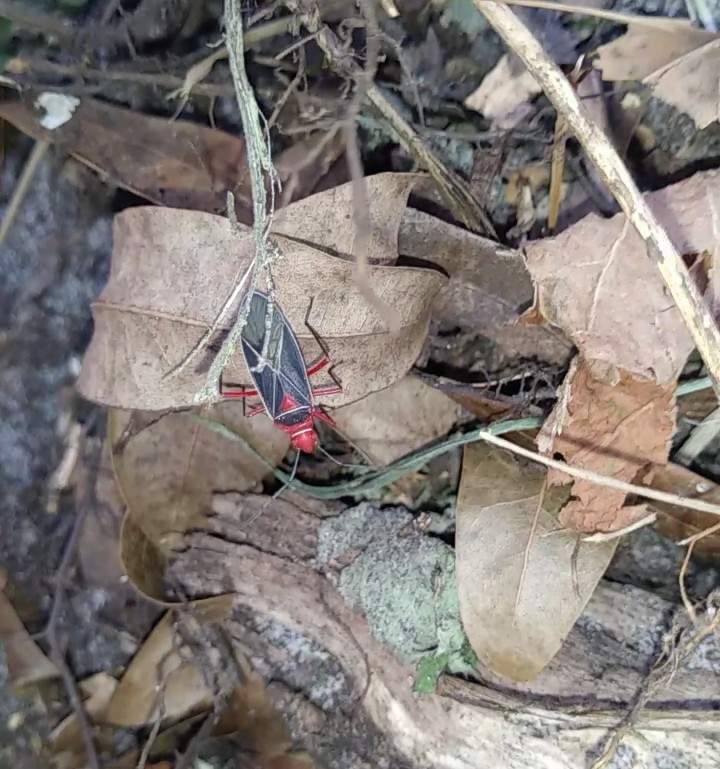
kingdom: Animalia
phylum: Arthropoda
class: Insecta
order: Hemiptera
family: Pyrrhocoridae
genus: Dysdercus
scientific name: Dysdercus suturellus
